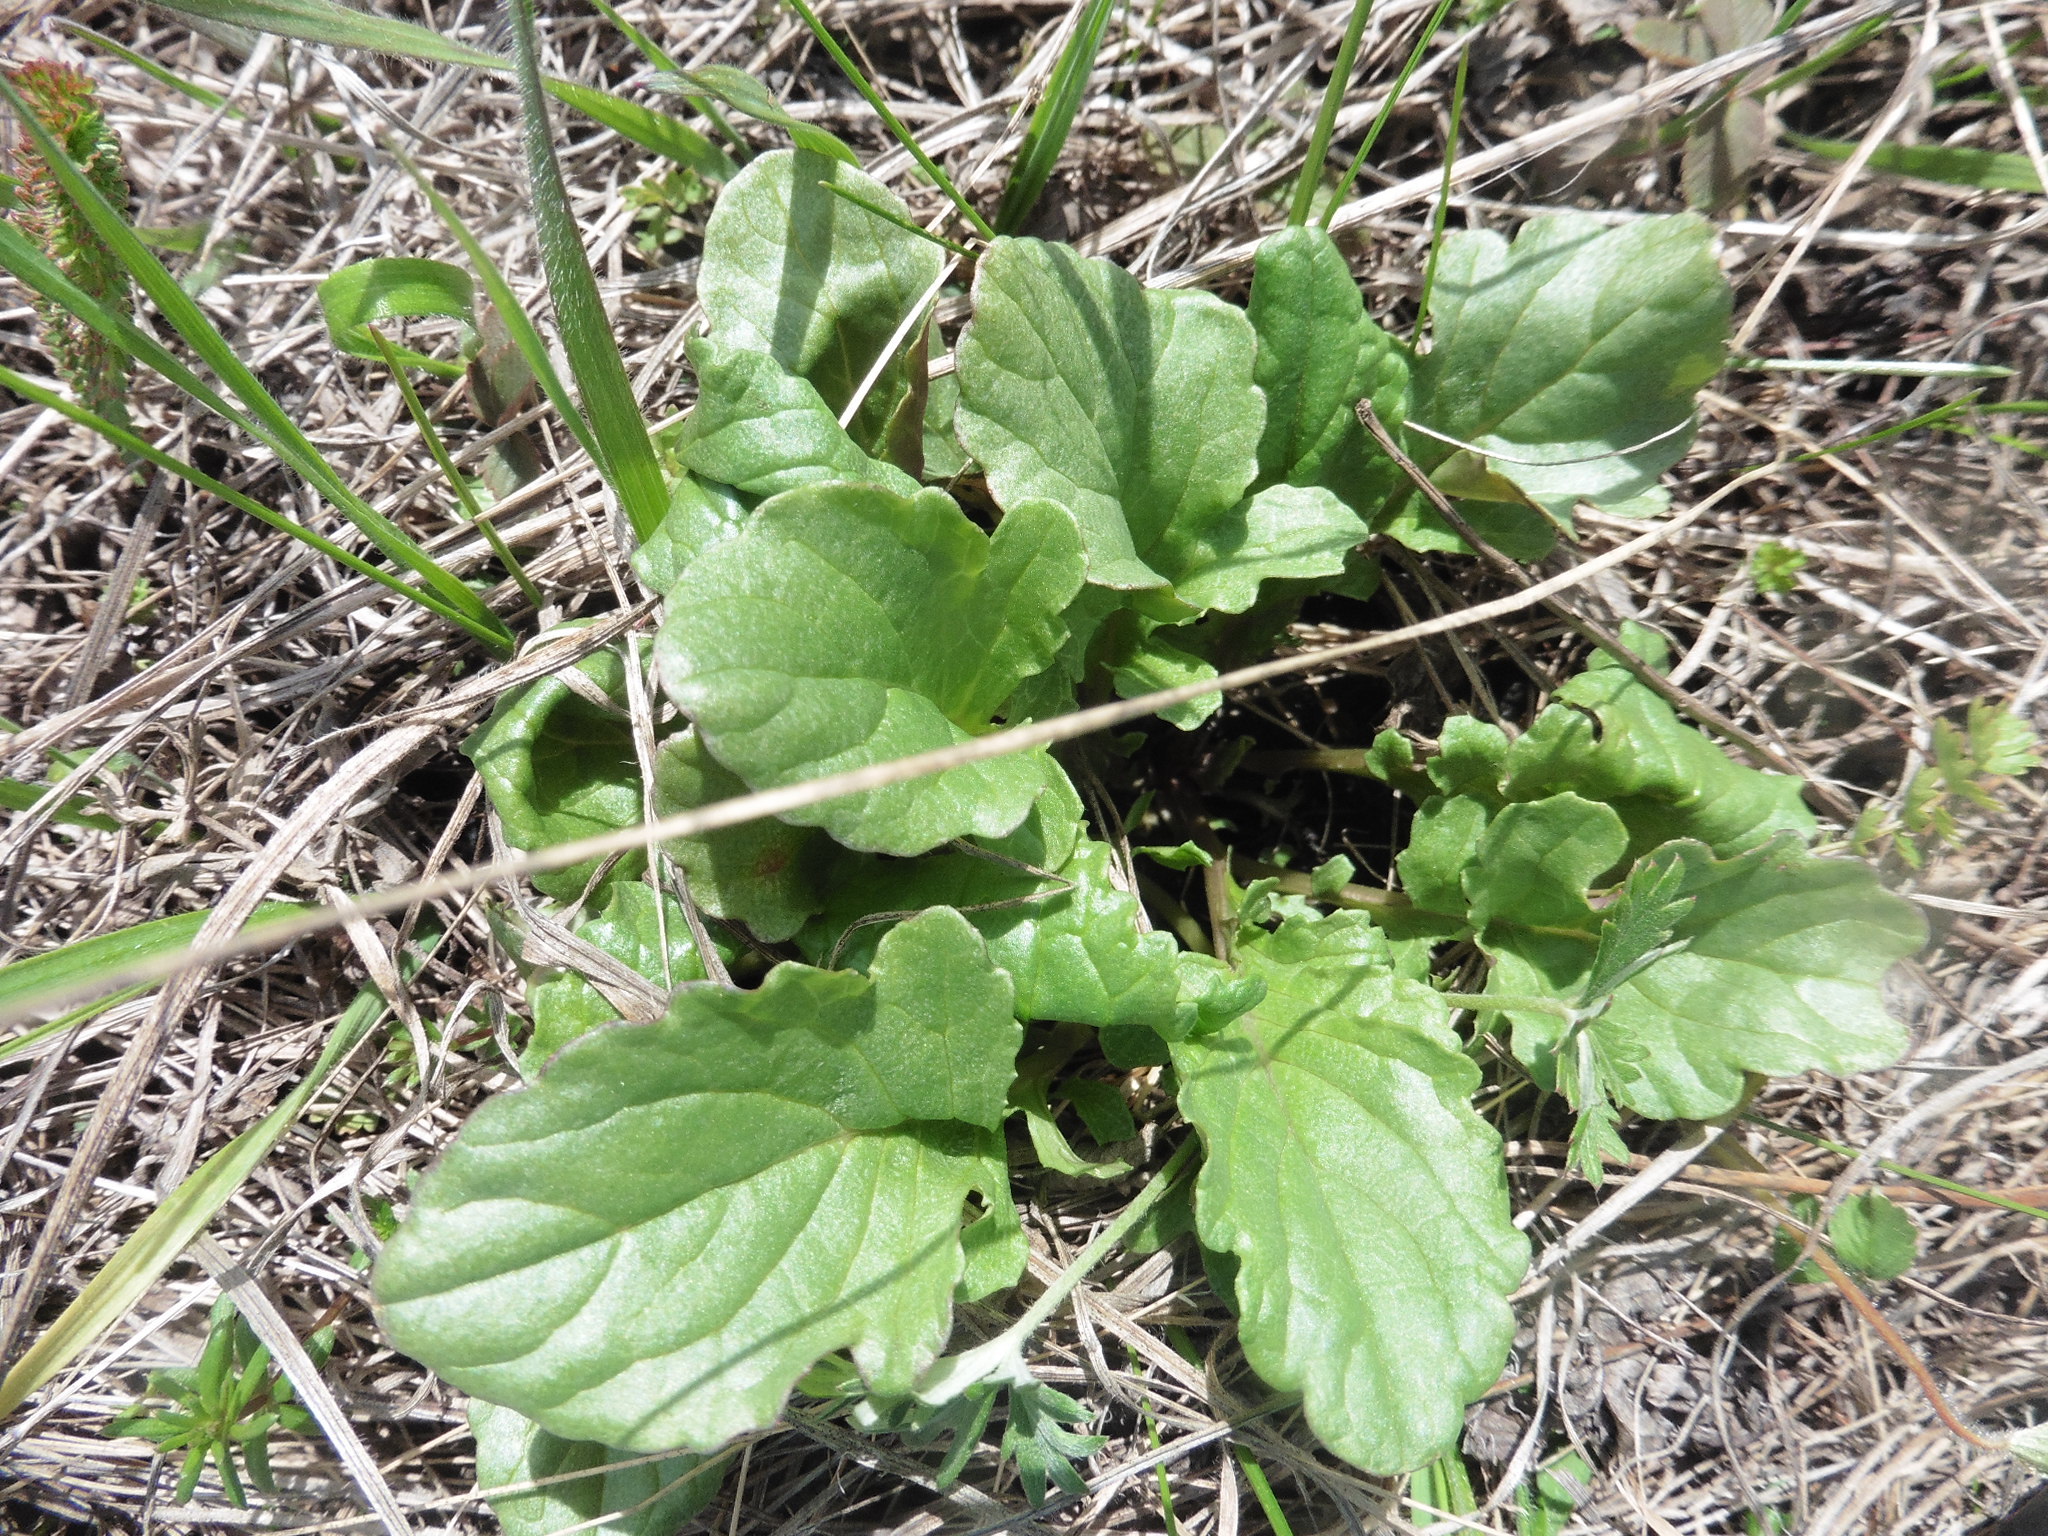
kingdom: Plantae
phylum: Tracheophyta
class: Magnoliopsida
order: Asterales
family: Asteraceae
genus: Jacobaea
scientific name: Jacobaea vulgaris
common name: Stinking willie
